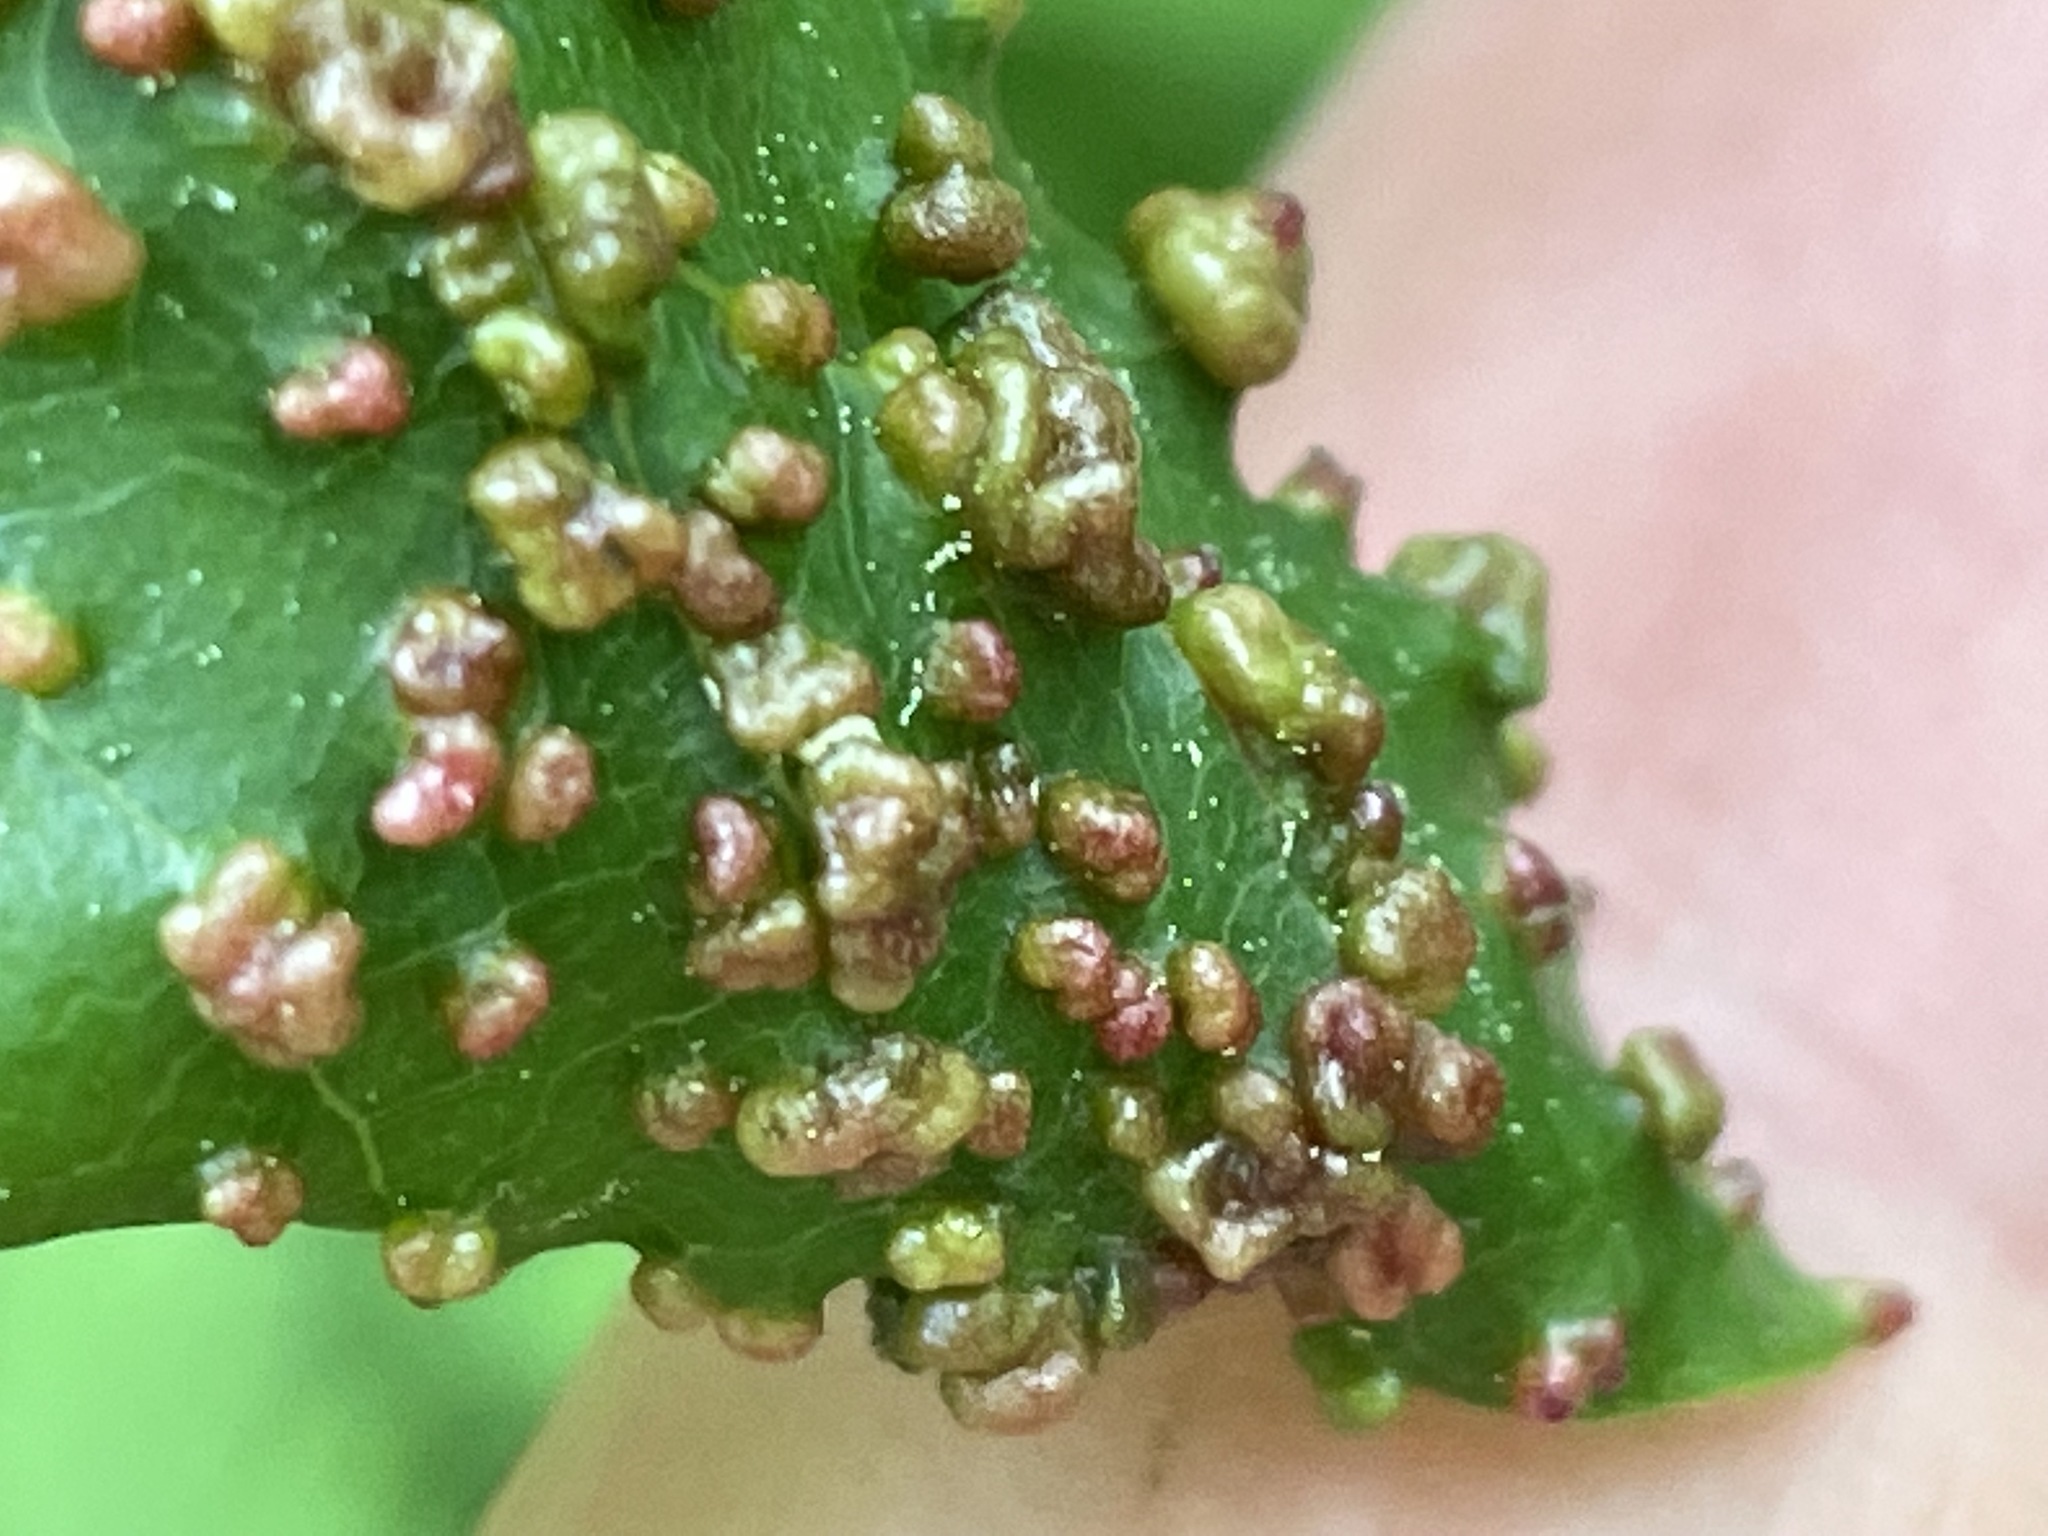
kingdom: Animalia
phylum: Arthropoda
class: Arachnida
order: Trombidiformes
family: Eriophyidae
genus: Aceria
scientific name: Aceria
